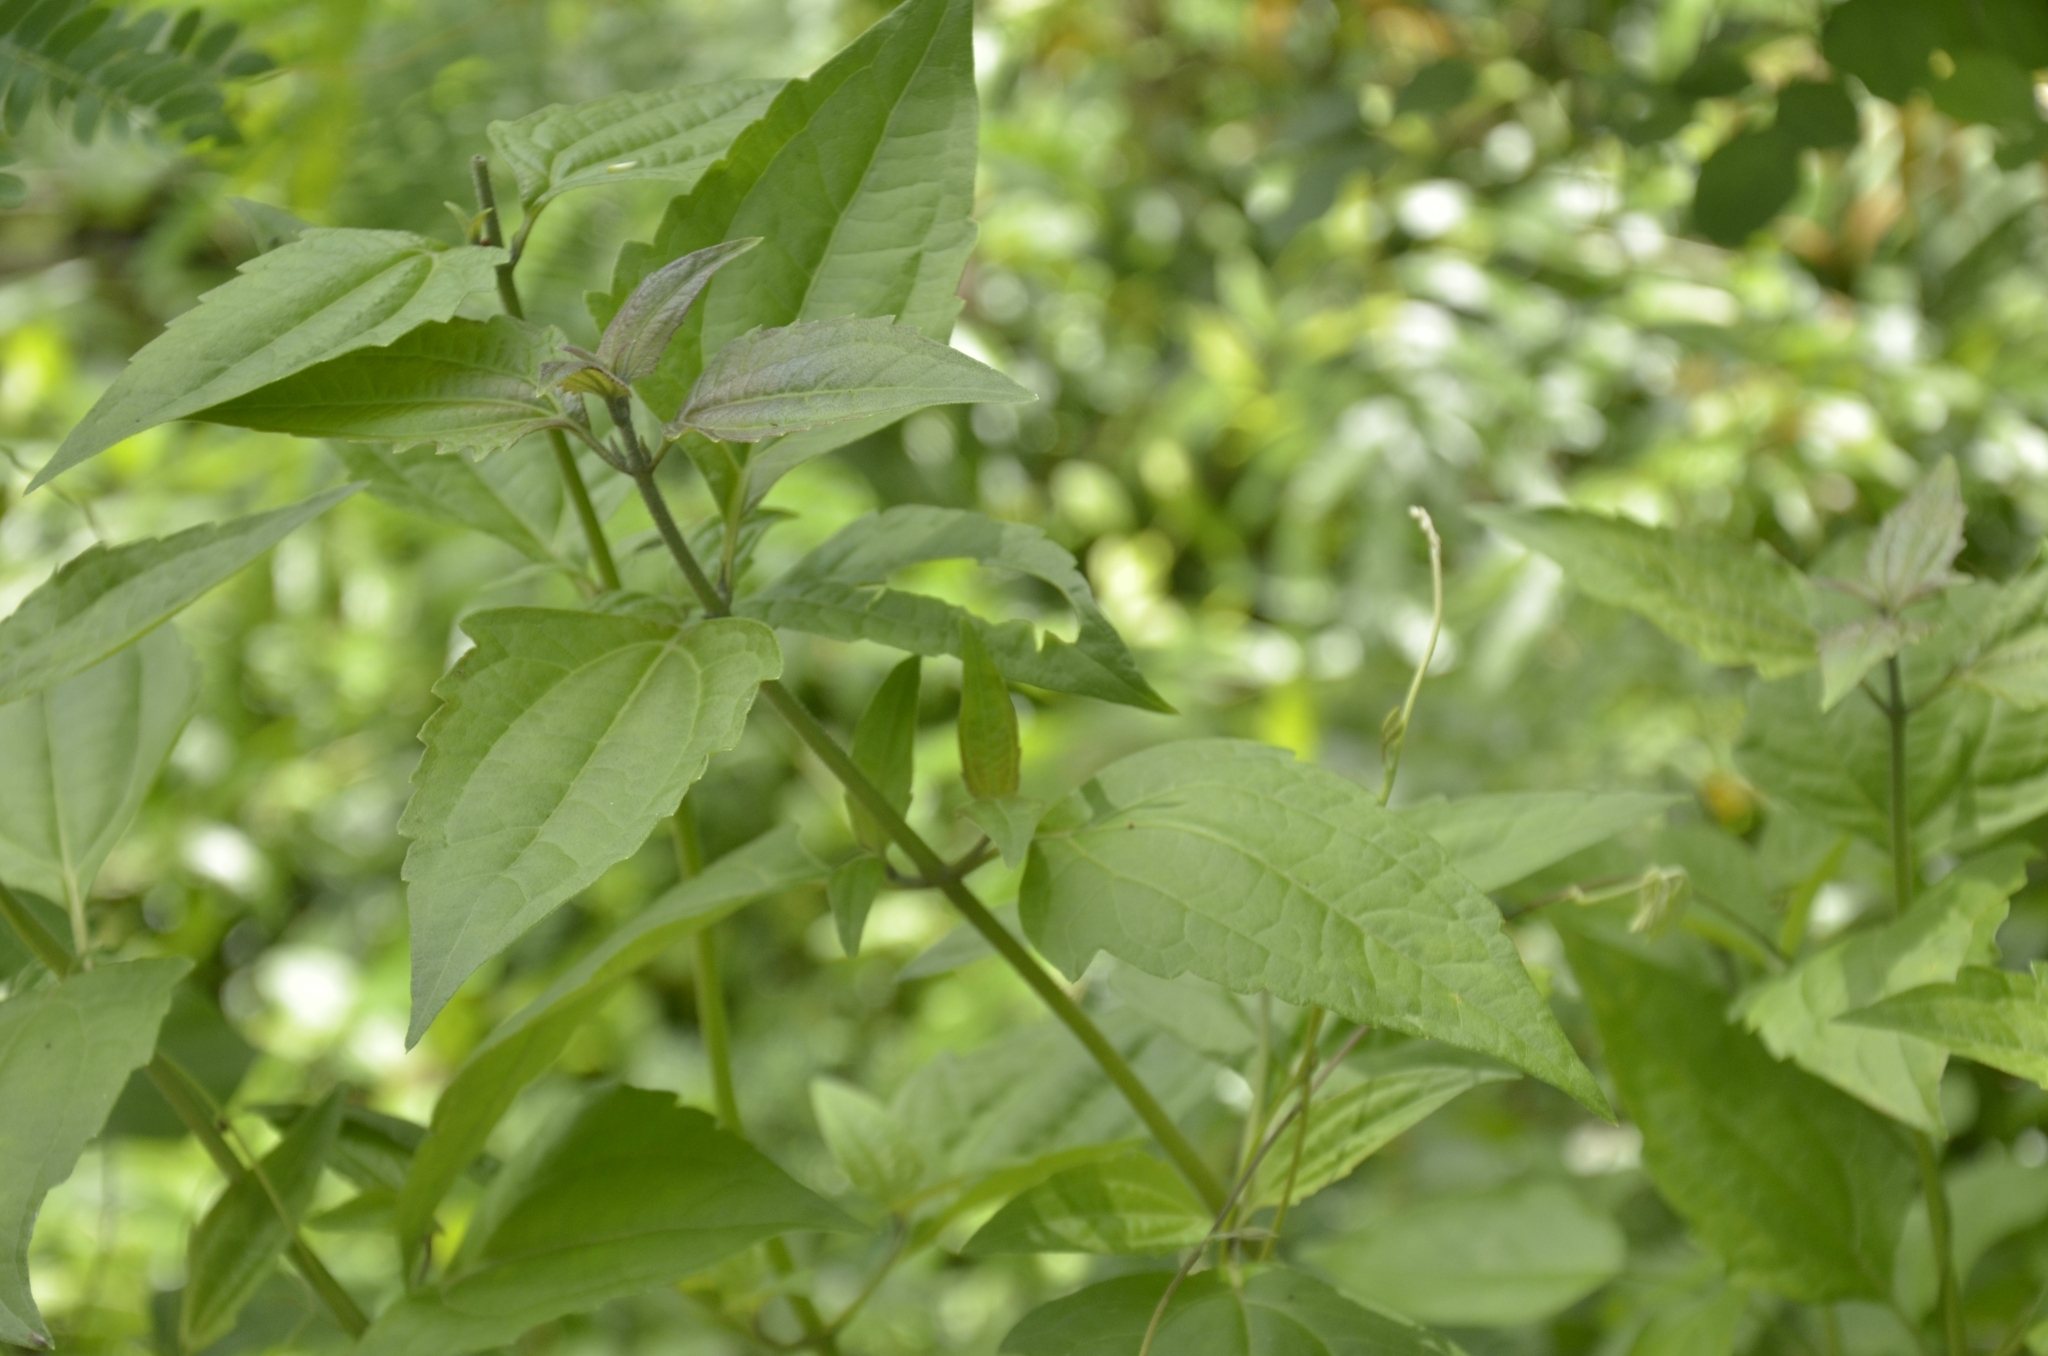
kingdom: Plantae
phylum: Tracheophyta
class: Magnoliopsida
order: Asterales
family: Asteraceae
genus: Chromolaena
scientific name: Chromolaena odorata
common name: Siamweed
